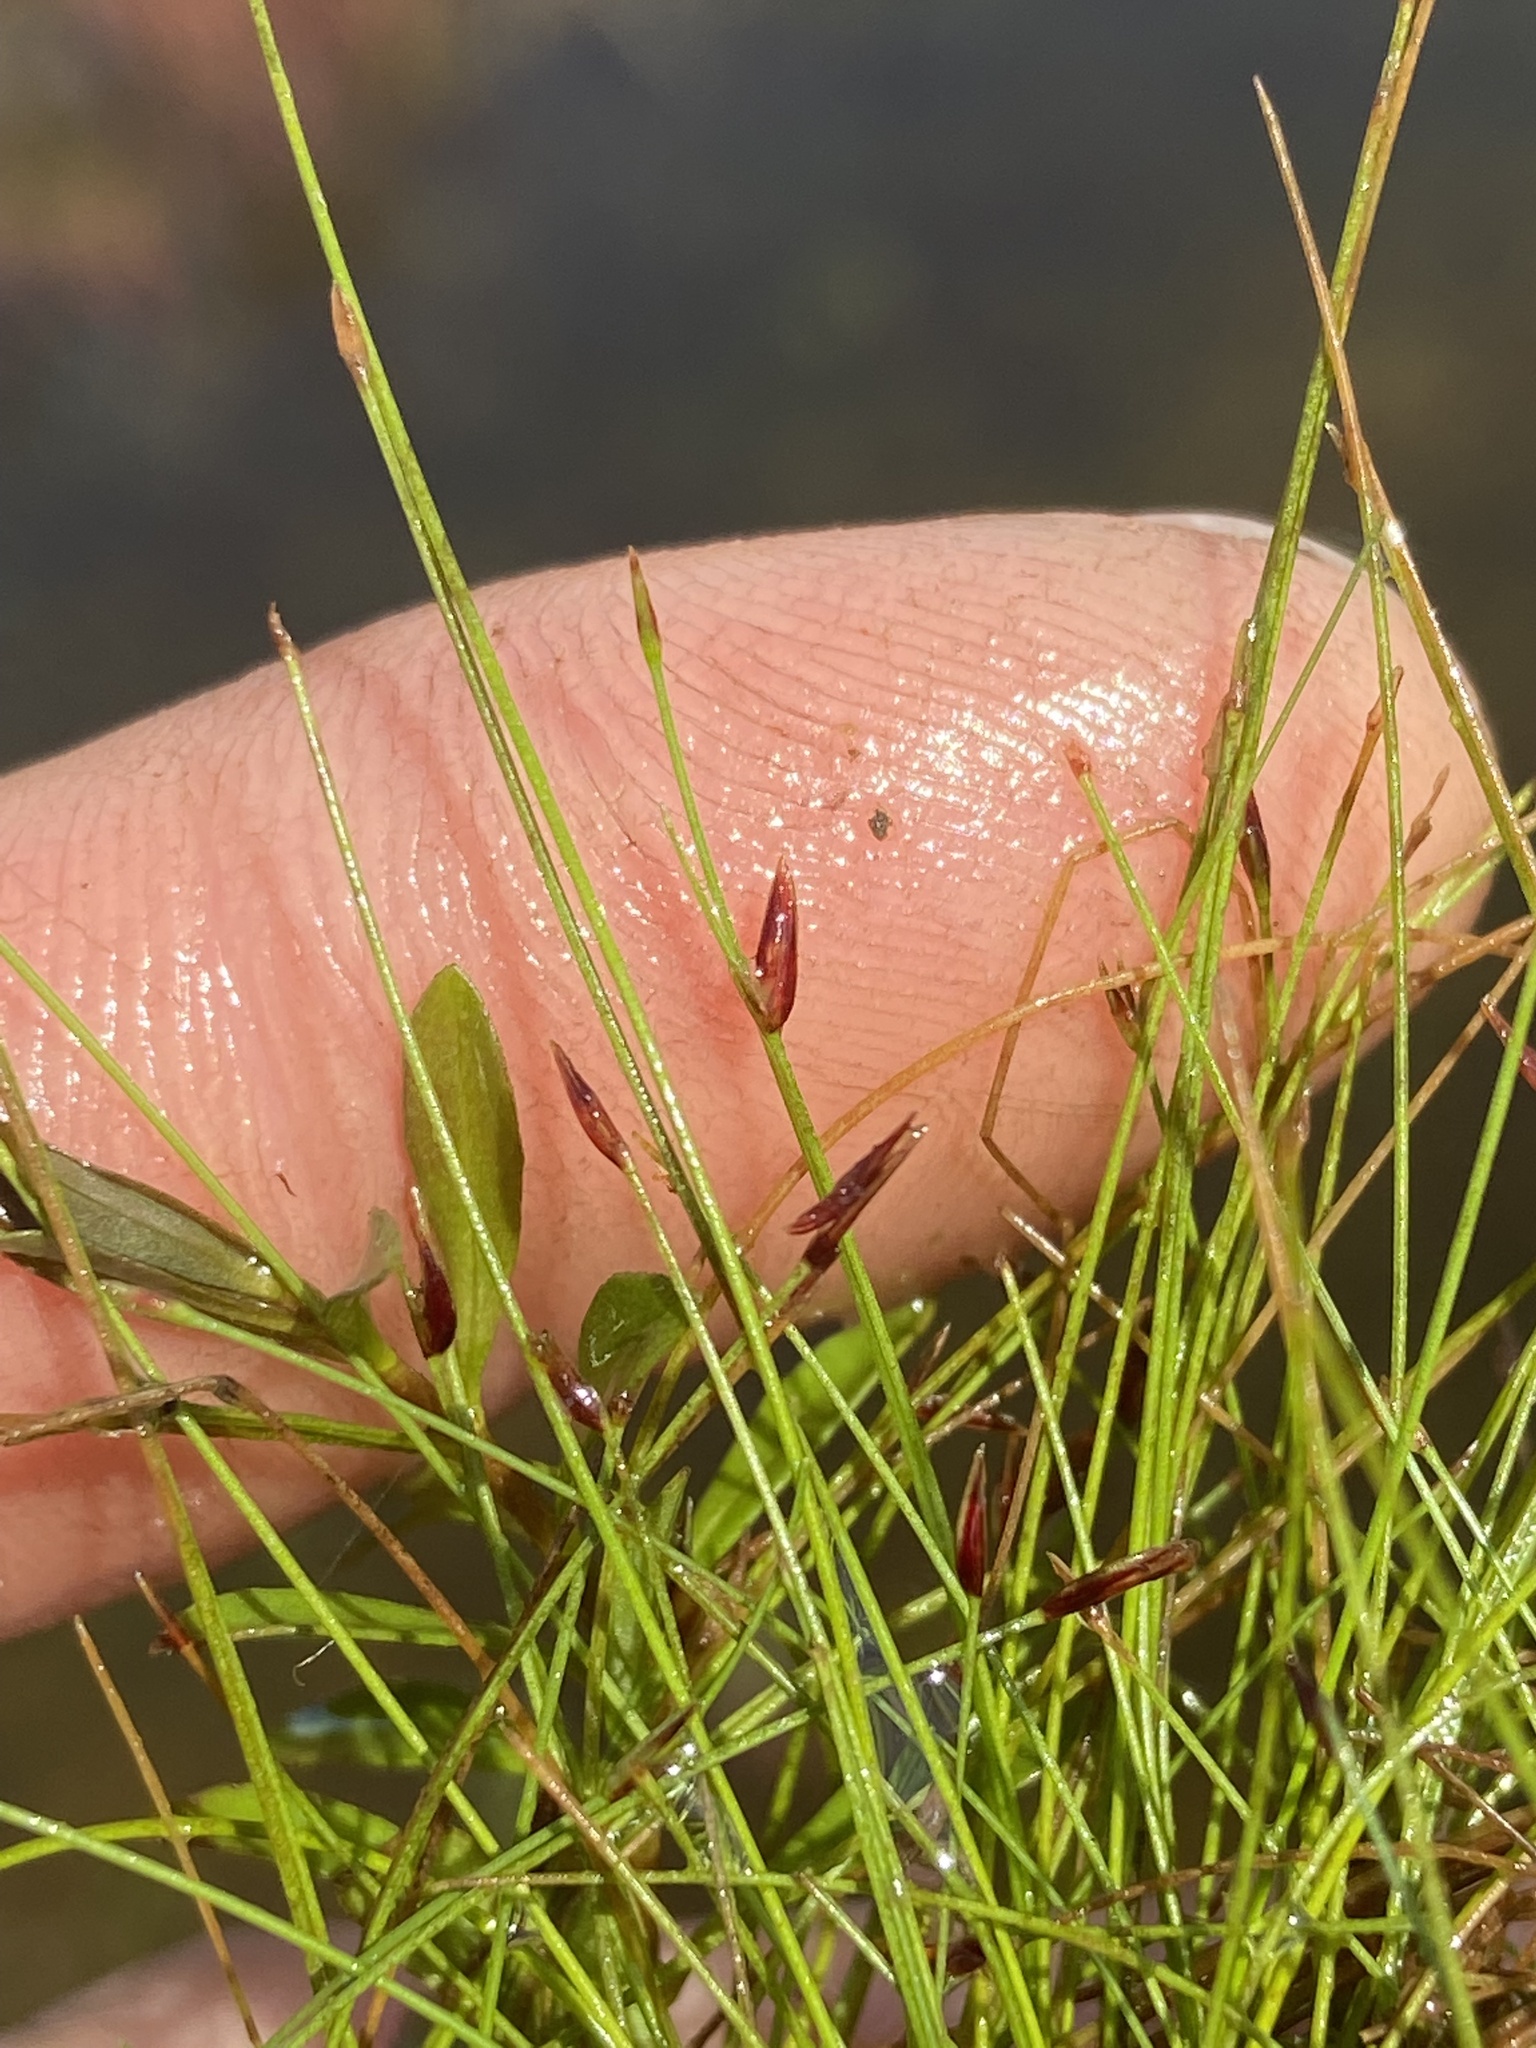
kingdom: Plantae
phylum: Tracheophyta
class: Liliopsida
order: Poales
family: Cyperaceae
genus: Eleocharis
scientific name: Eleocharis baldwinii
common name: Baldwin's spike-rush
